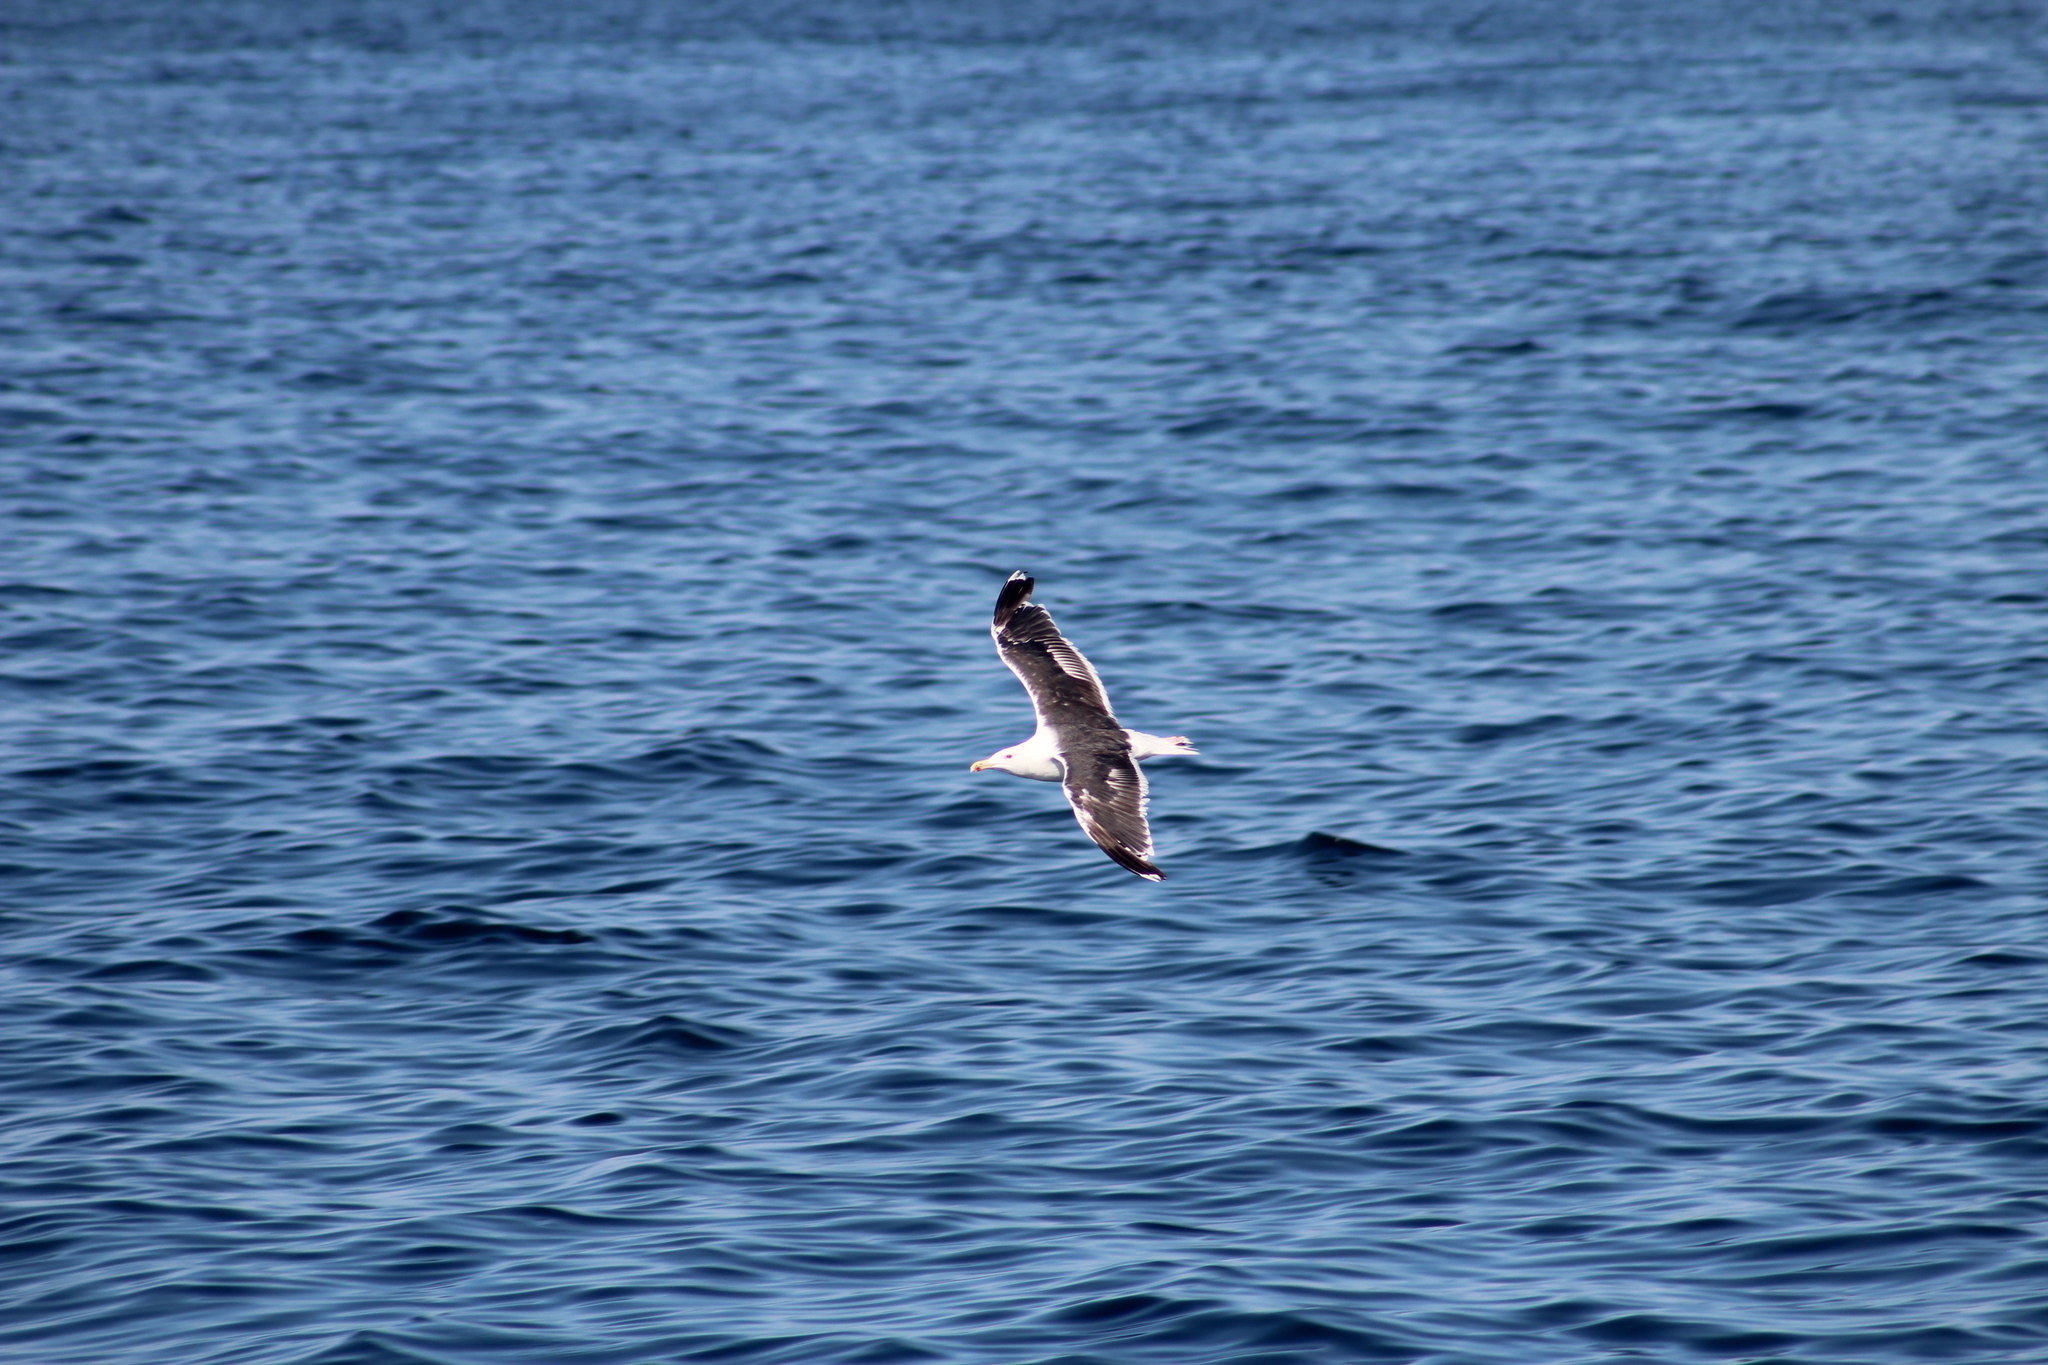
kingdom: Animalia
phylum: Chordata
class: Aves
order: Charadriiformes
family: Laridae
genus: Larus
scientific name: Larus marinus
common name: Great black-backed gull
